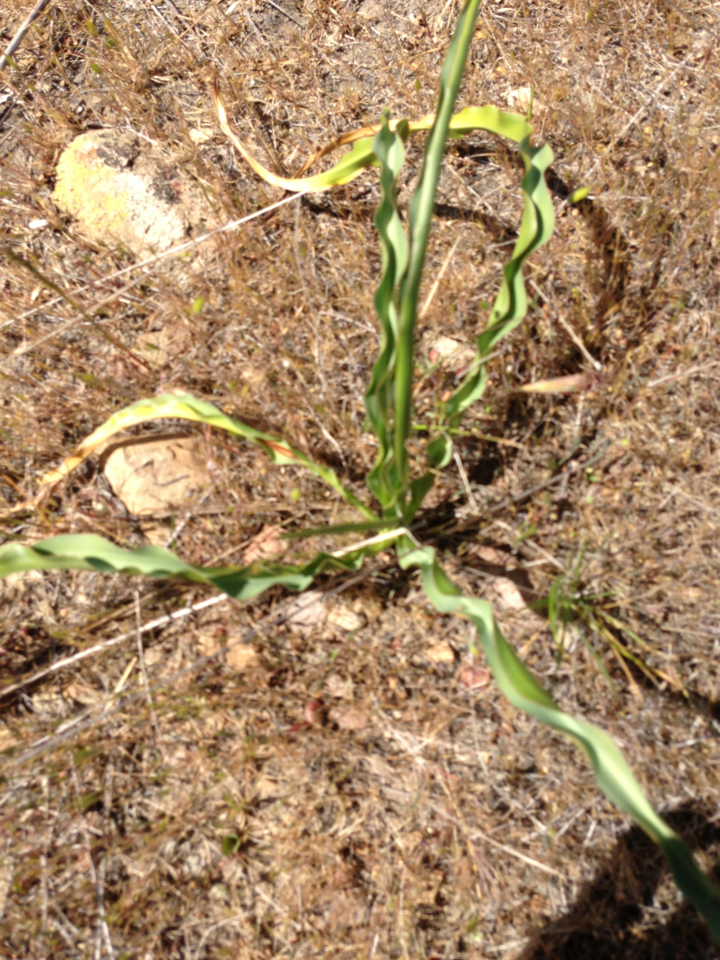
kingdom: Plantae
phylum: Tracheophyta
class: Liliopsida
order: Asparagales
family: Asparagaceae
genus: Chlorogalum
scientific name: Chlorogalum pomeridianum
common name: Amole
